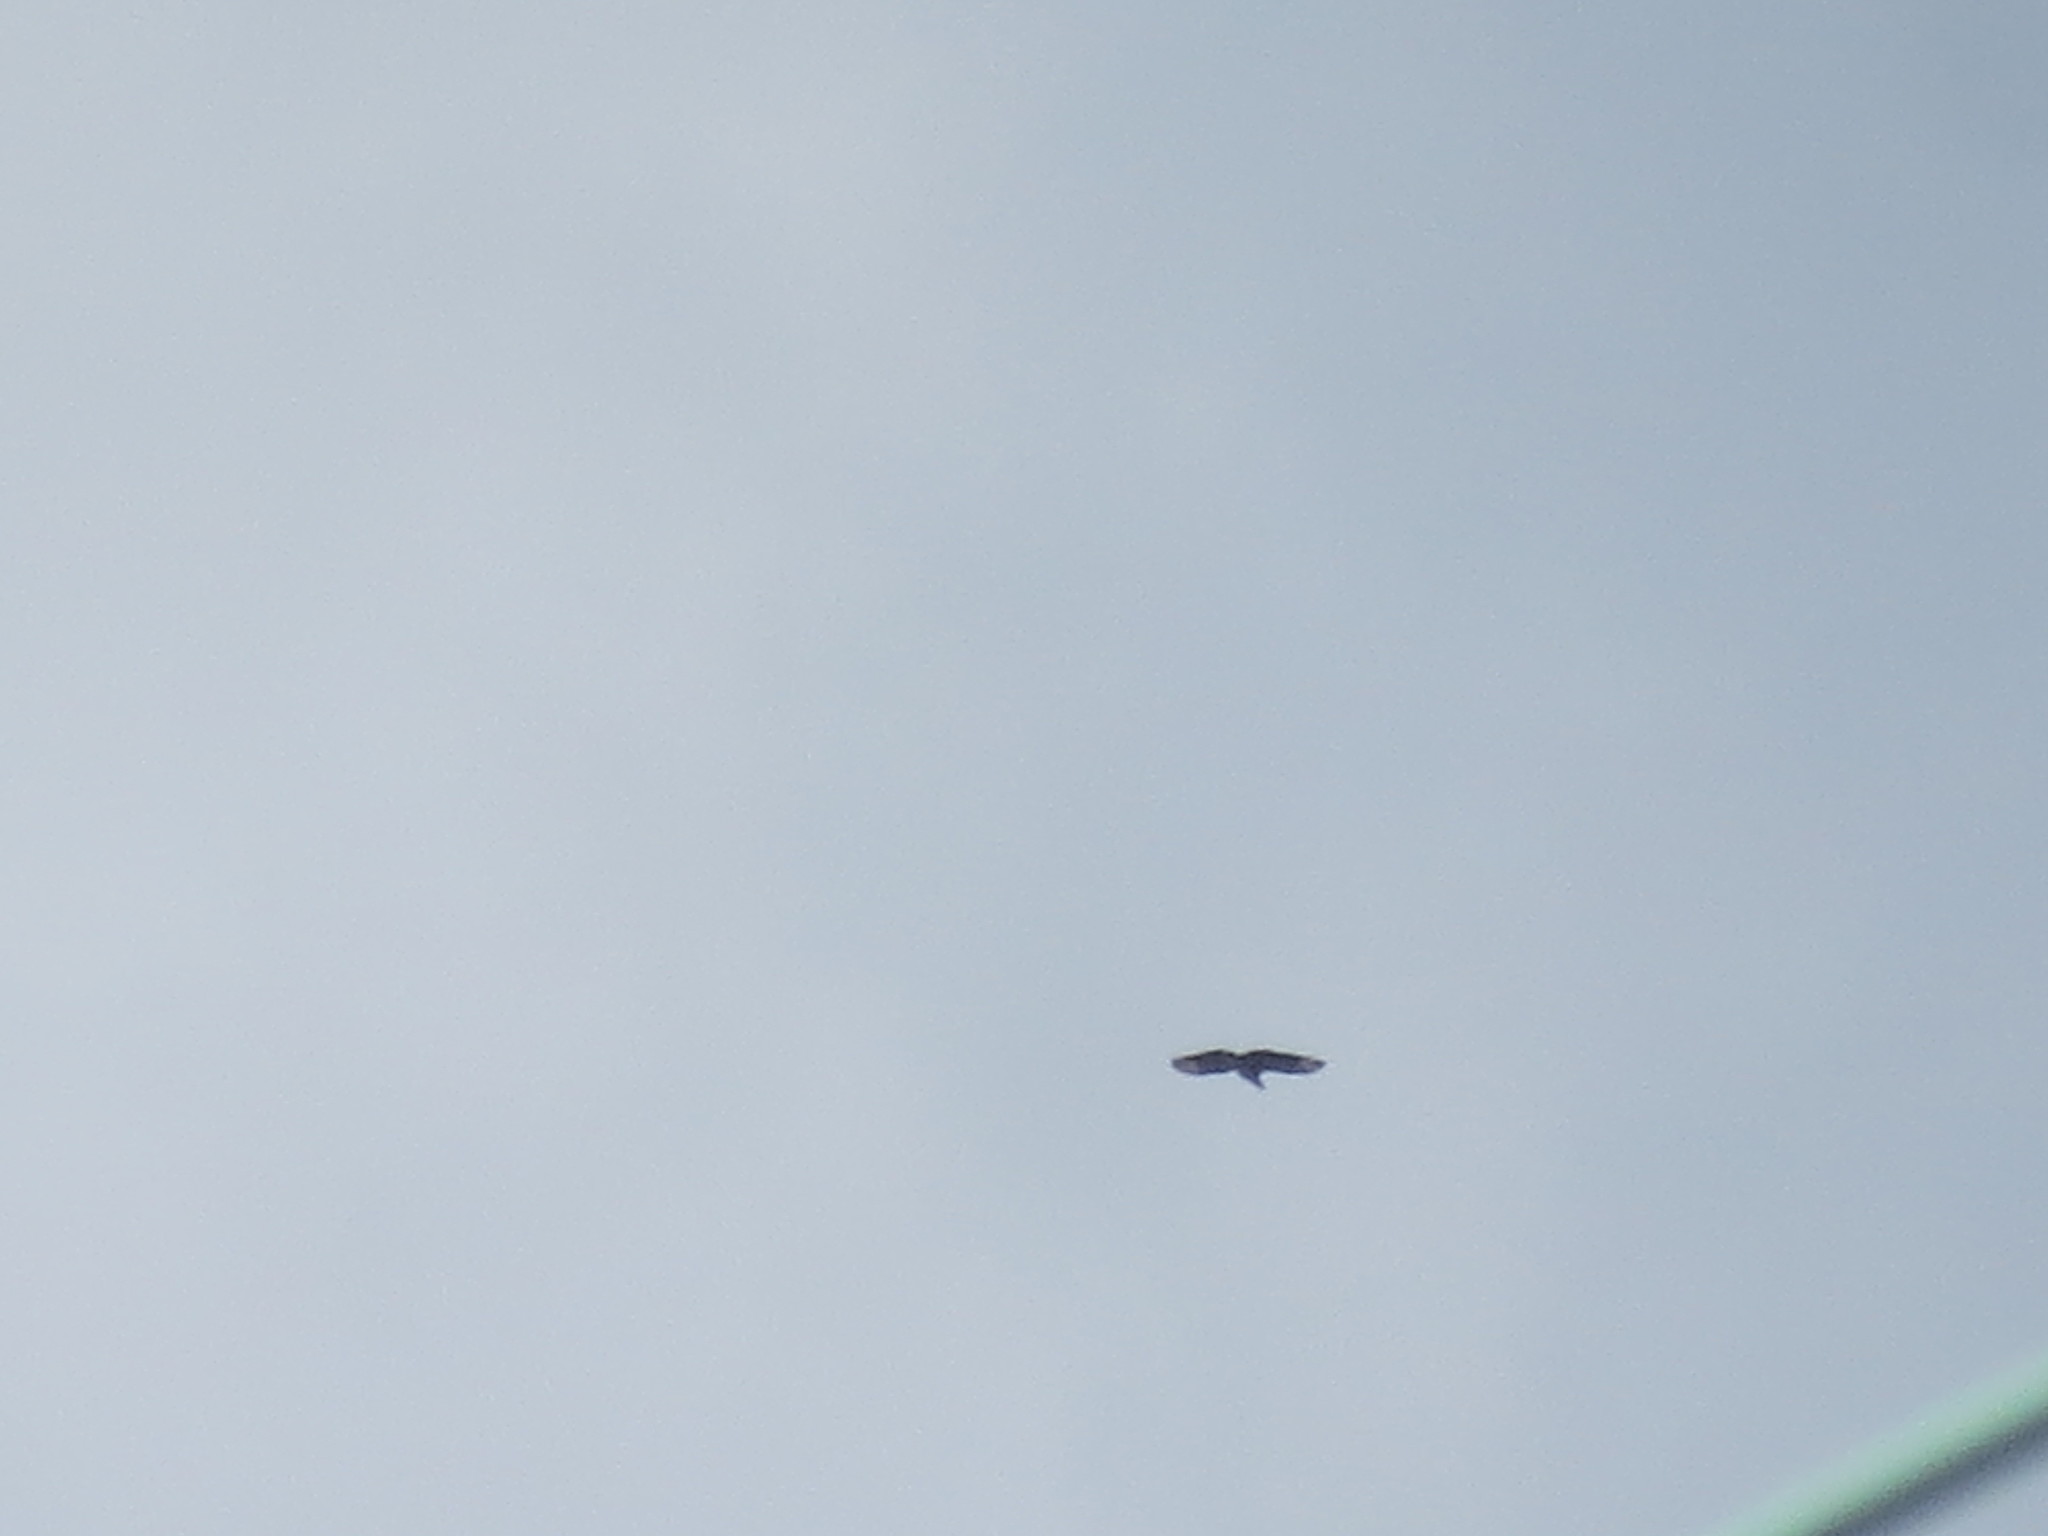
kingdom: Animalia
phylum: Chordata
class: Aves
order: Accipitriformes
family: Cathartidae
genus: Coragyps
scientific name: Coragyps atratus
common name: Black vulture
